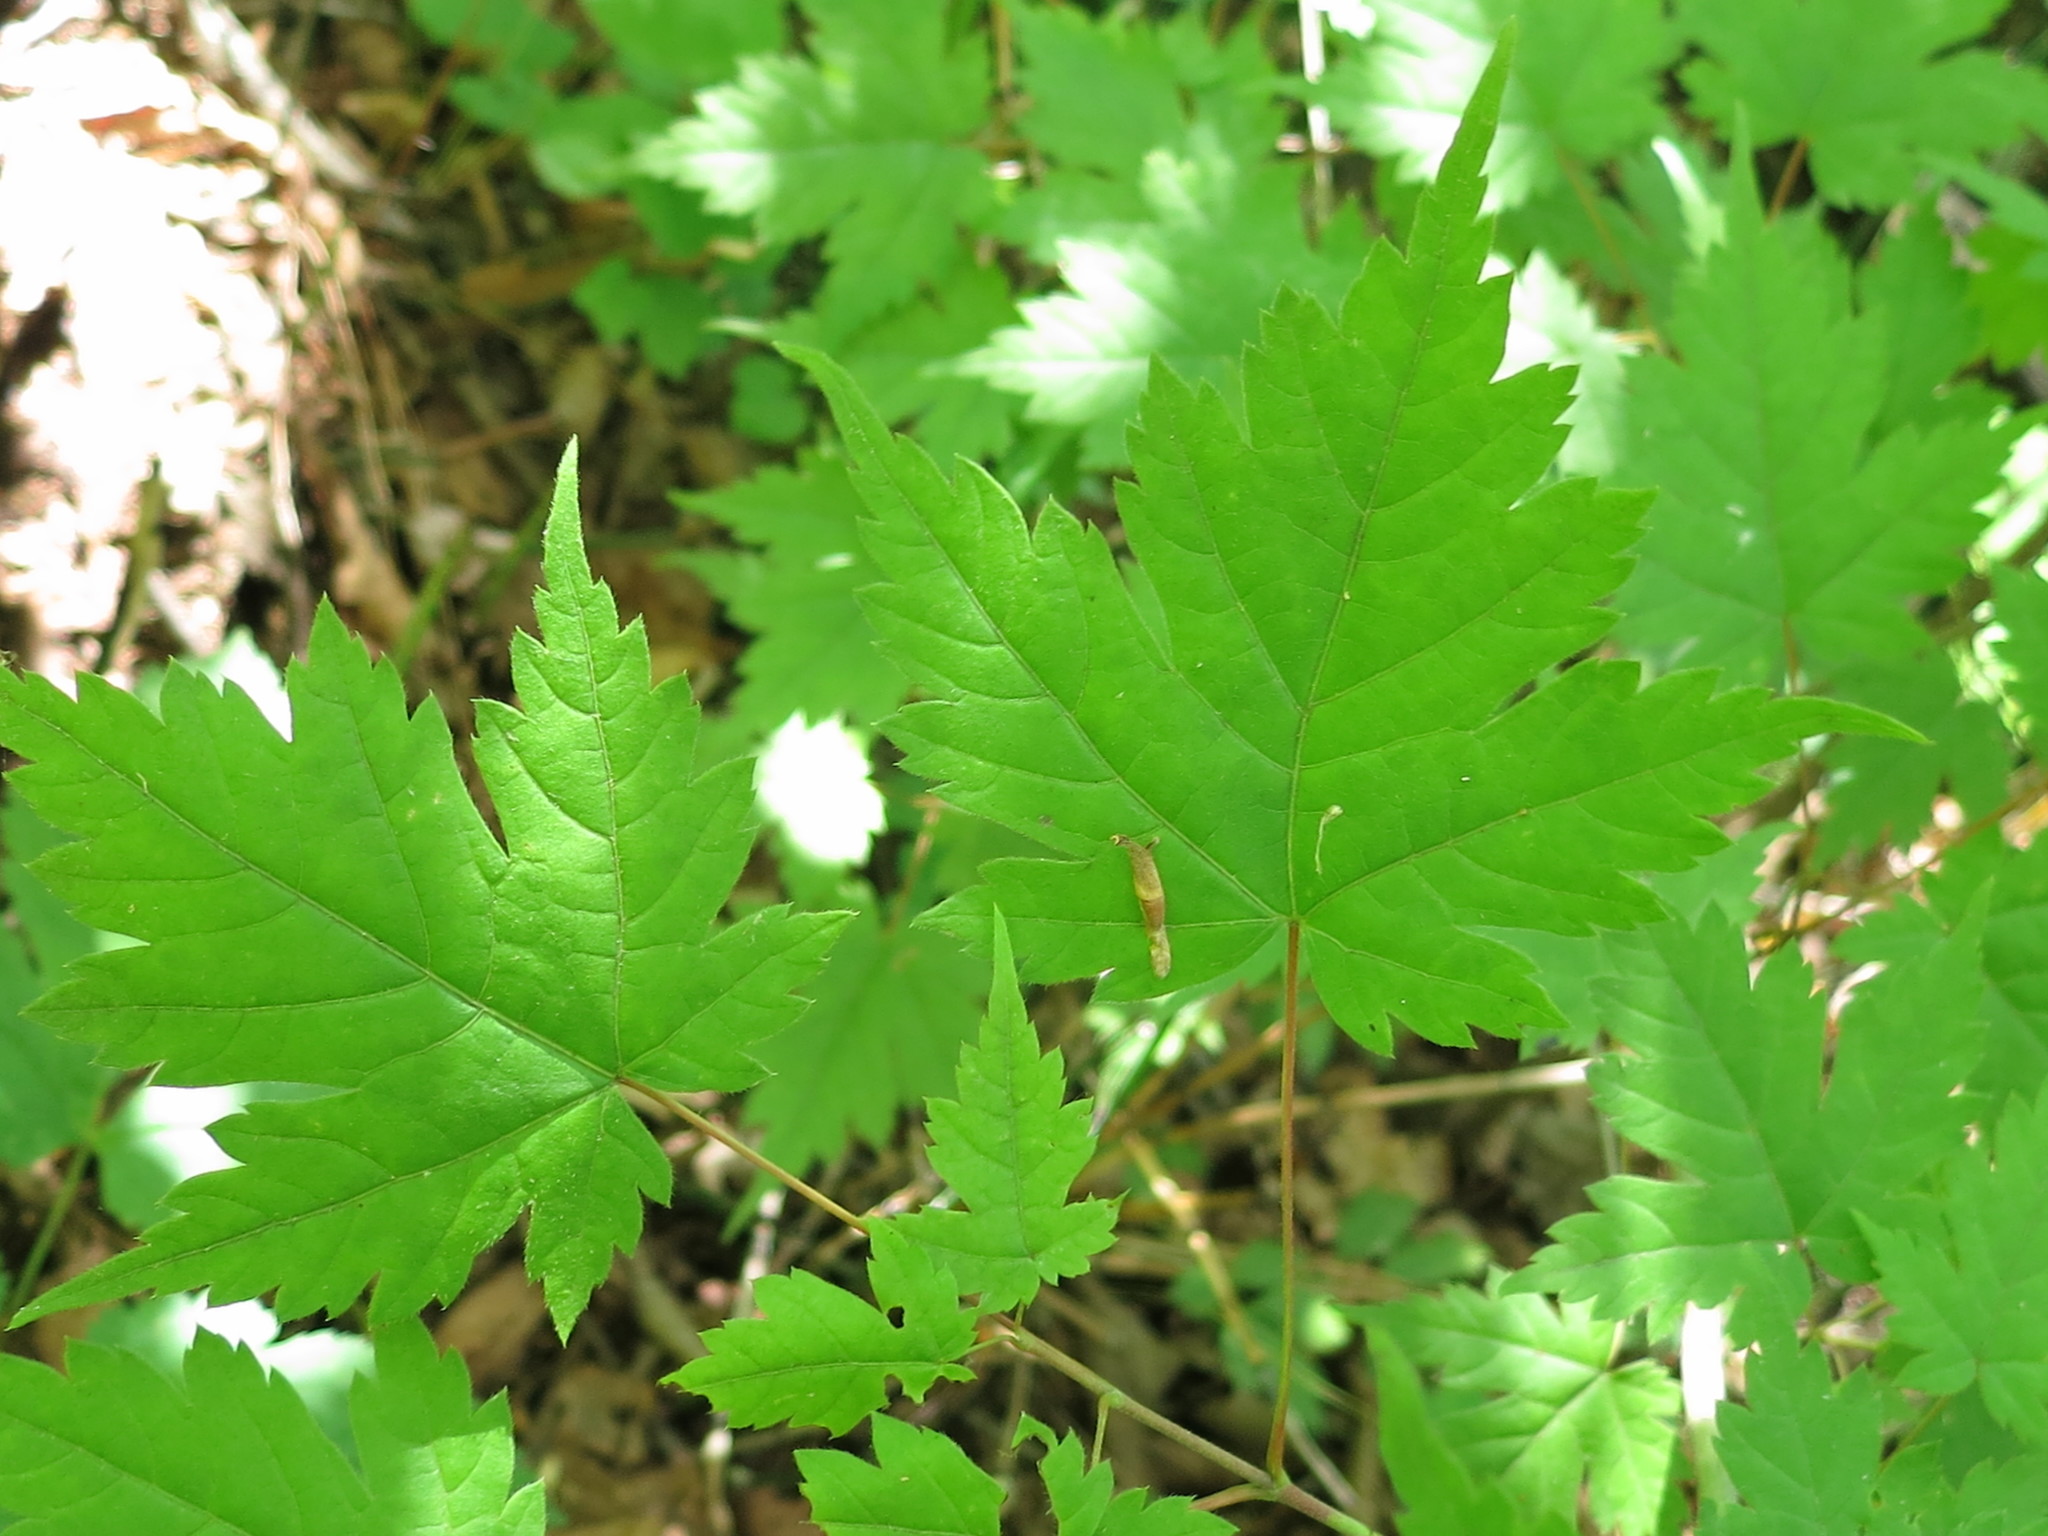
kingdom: Plantae
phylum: Tracheophyta
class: Magnoliopsida
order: Sapindales
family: Sapindaceae
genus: Acer
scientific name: Acer barbinerve
